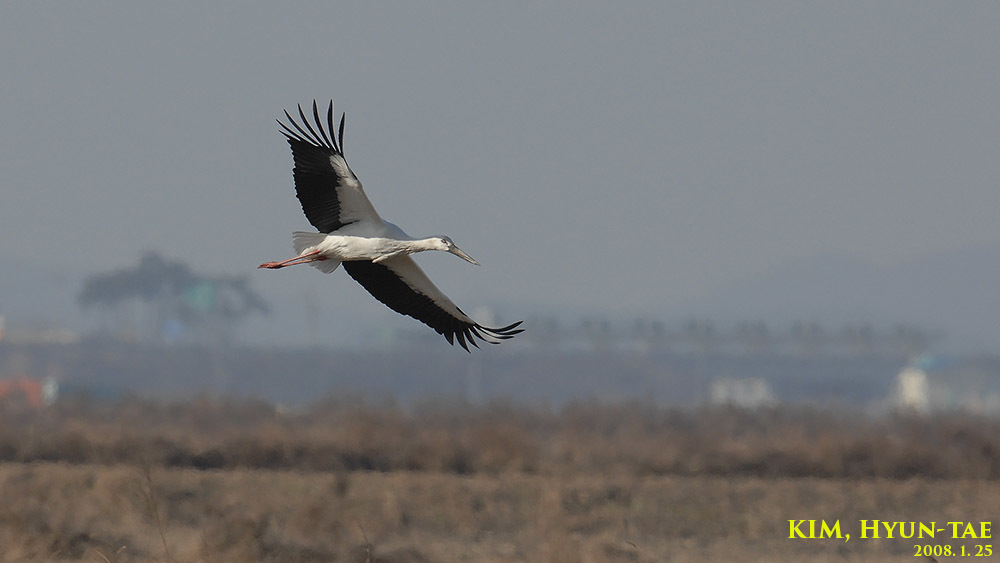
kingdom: Animalia
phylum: Chordata
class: Aves
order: Ciconiiformes
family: Ciconiidae
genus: Ciconia
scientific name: Ciconia boyciana
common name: Oriental stork
